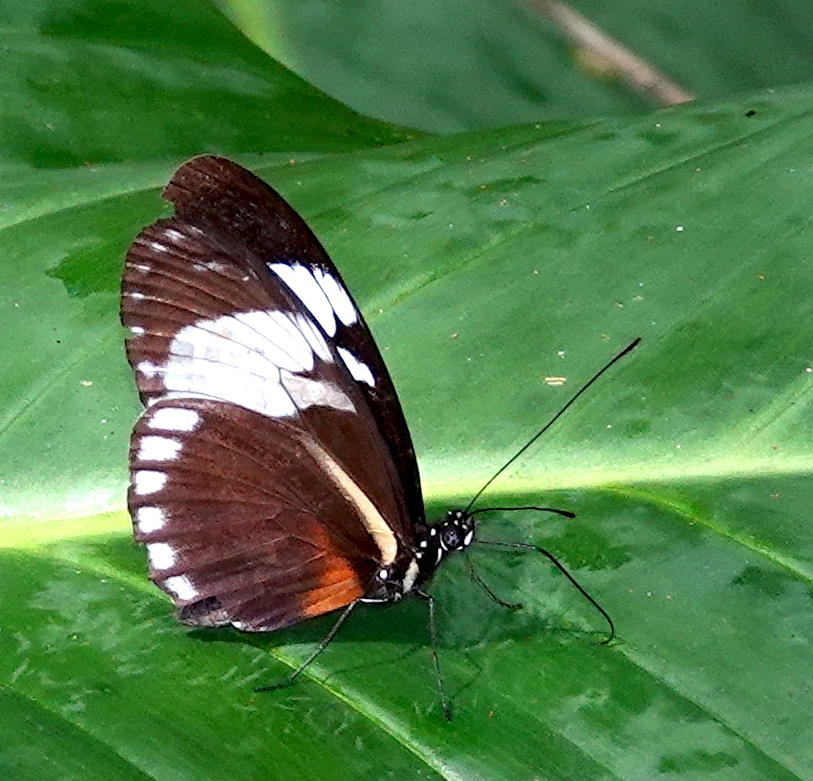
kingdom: Animalia
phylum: Arthropoda
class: Insecta
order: Lepidoptera
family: Nymphalidae
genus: Heliconius
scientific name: Heliconius cydno
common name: Cydno longwing
